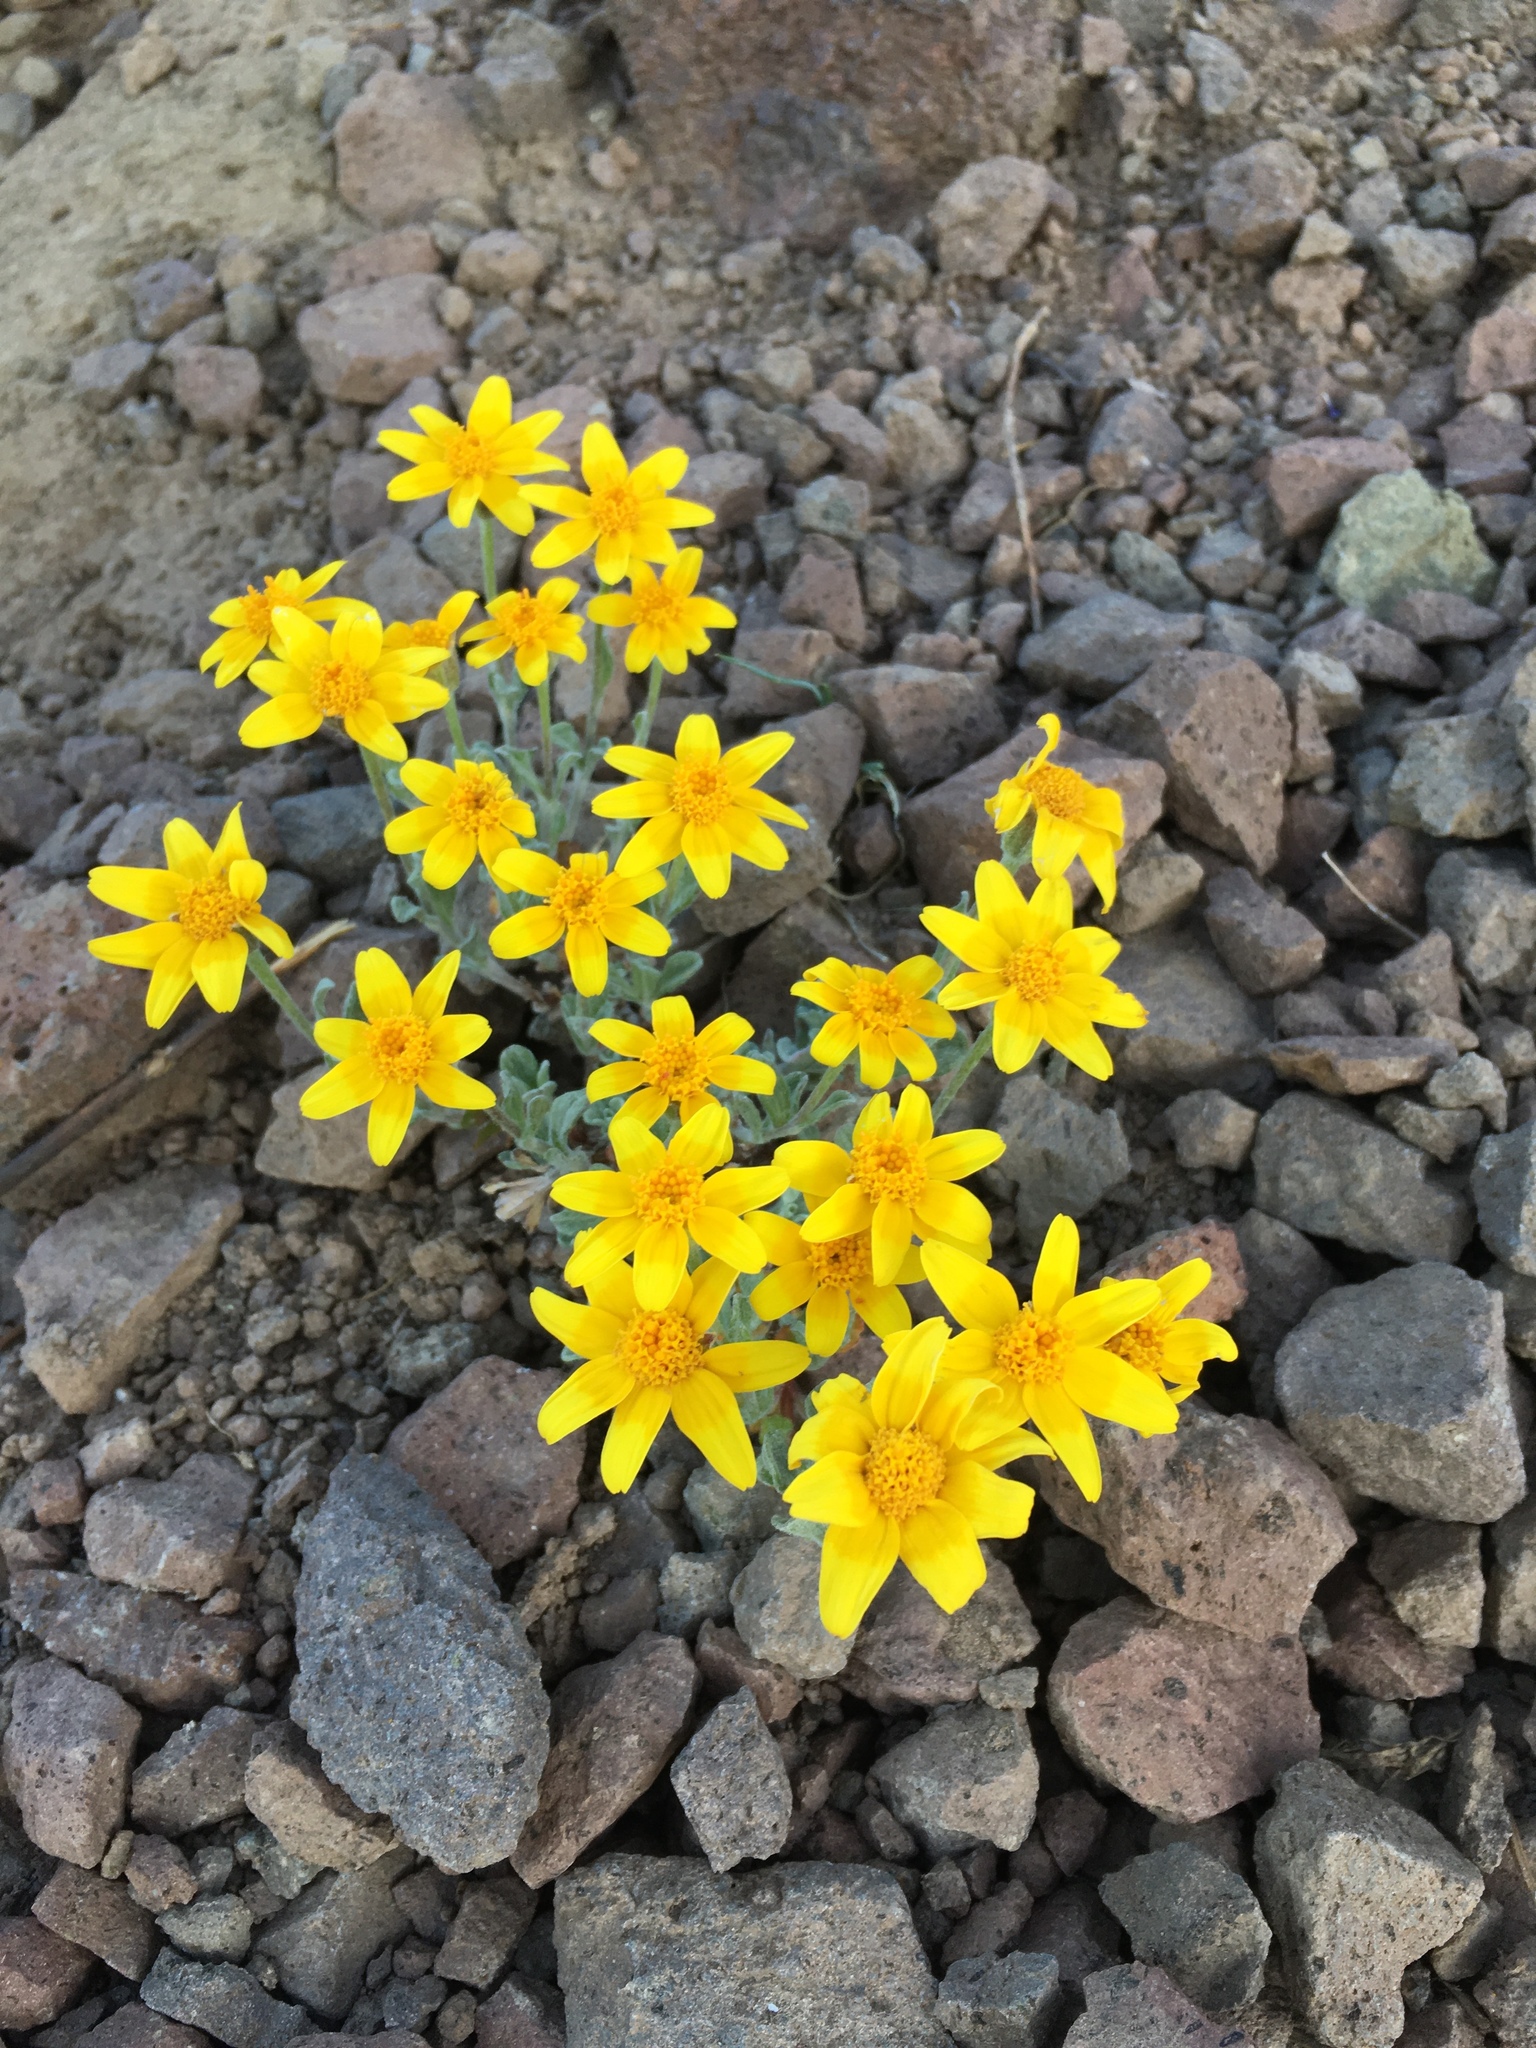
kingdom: Plantae
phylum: Tracheophyta
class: Magnoliopsida
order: Asterales
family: Asteraceae
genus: Eriophyllum
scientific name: Eriophyllum lanatum
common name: Common woolly-sunflower
